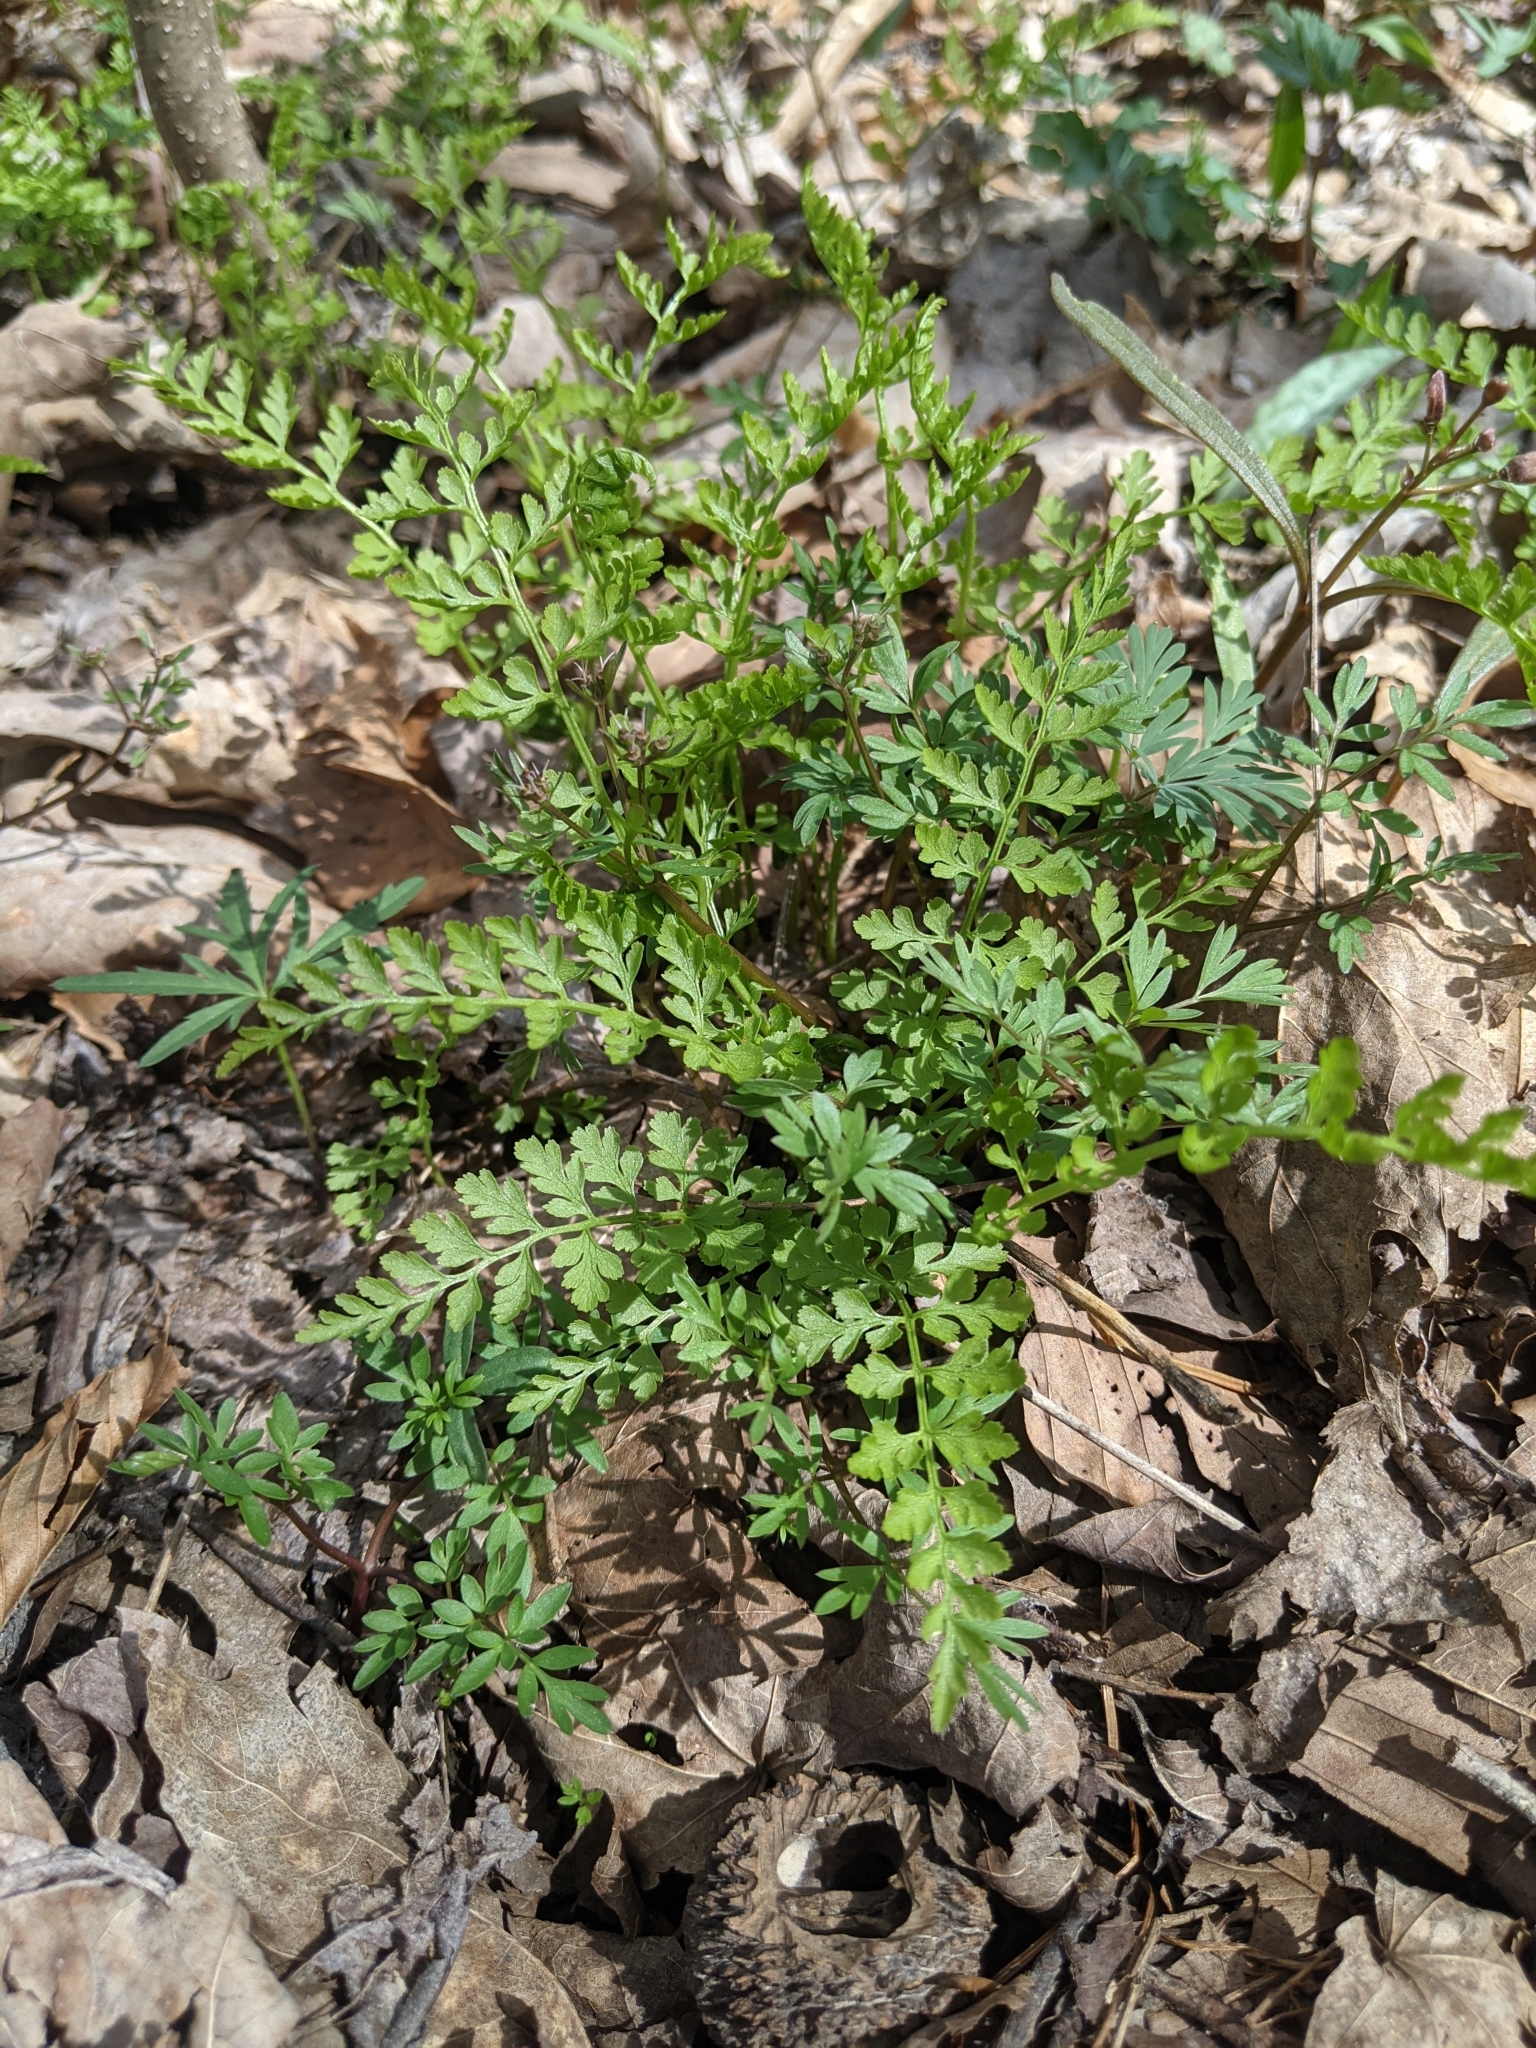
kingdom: Plantae
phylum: Tracheophyta
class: Polypodiopsida
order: Polypodiales
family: Cystopteridaceae
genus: Cystopteris
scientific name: Cystopteris protrusa
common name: Lowland brittle fern
